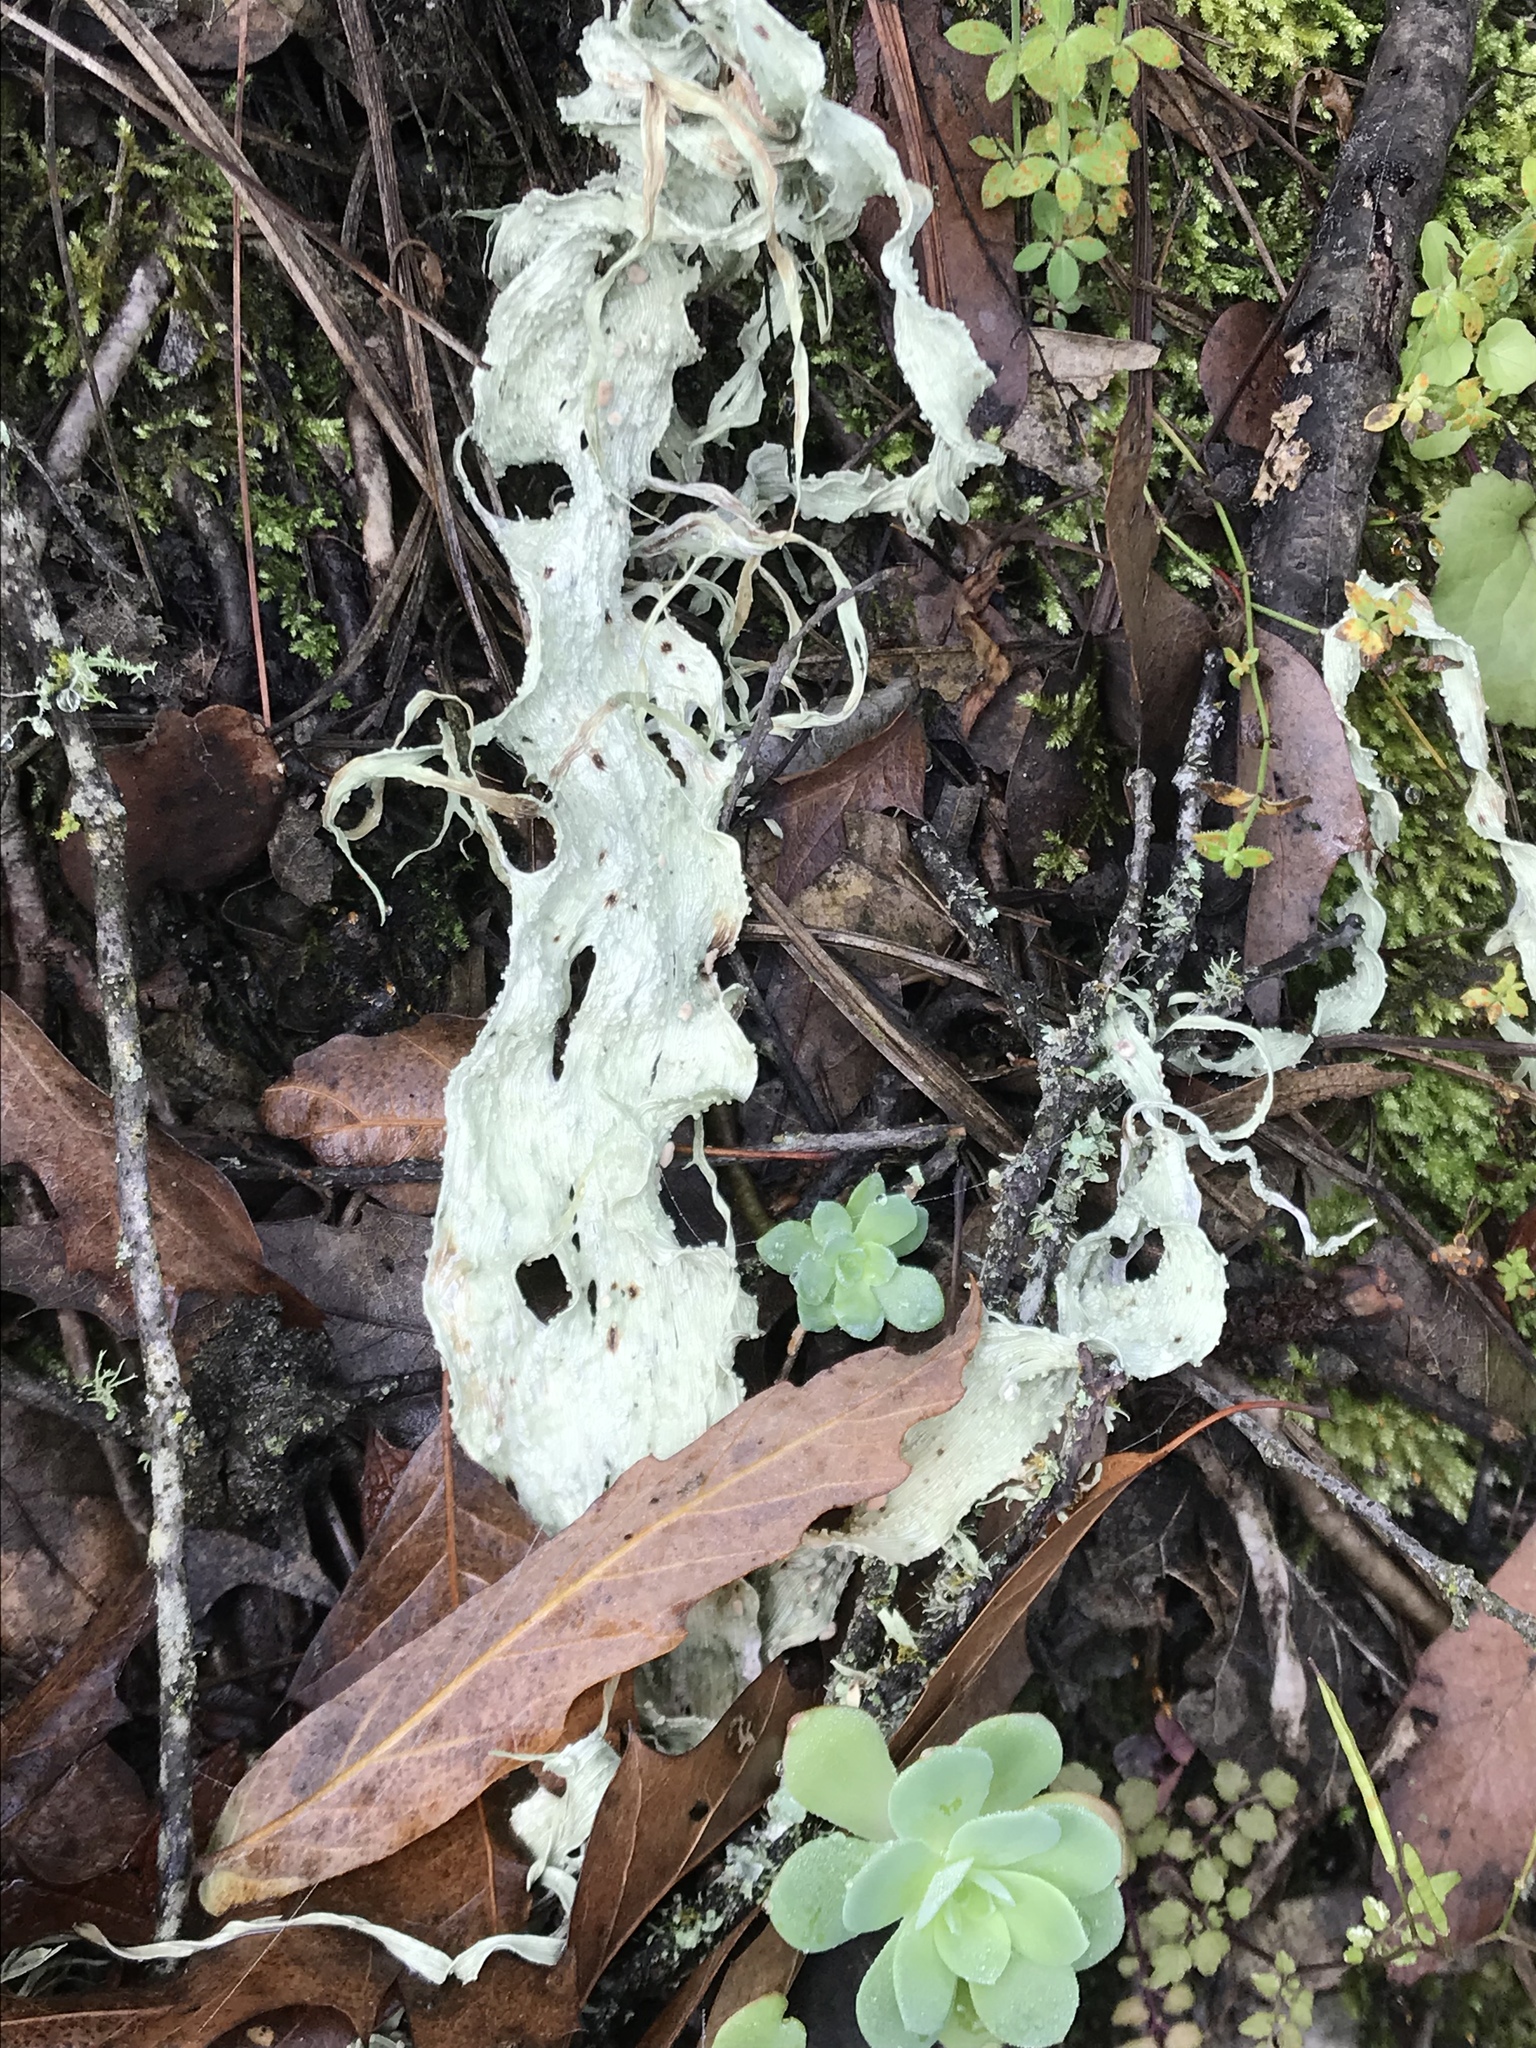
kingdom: Fungi
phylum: Ascomycota
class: Lecanoromycetes
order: Lecanorales
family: Ramalinaceae
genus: Ramalina
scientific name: Ramalina
